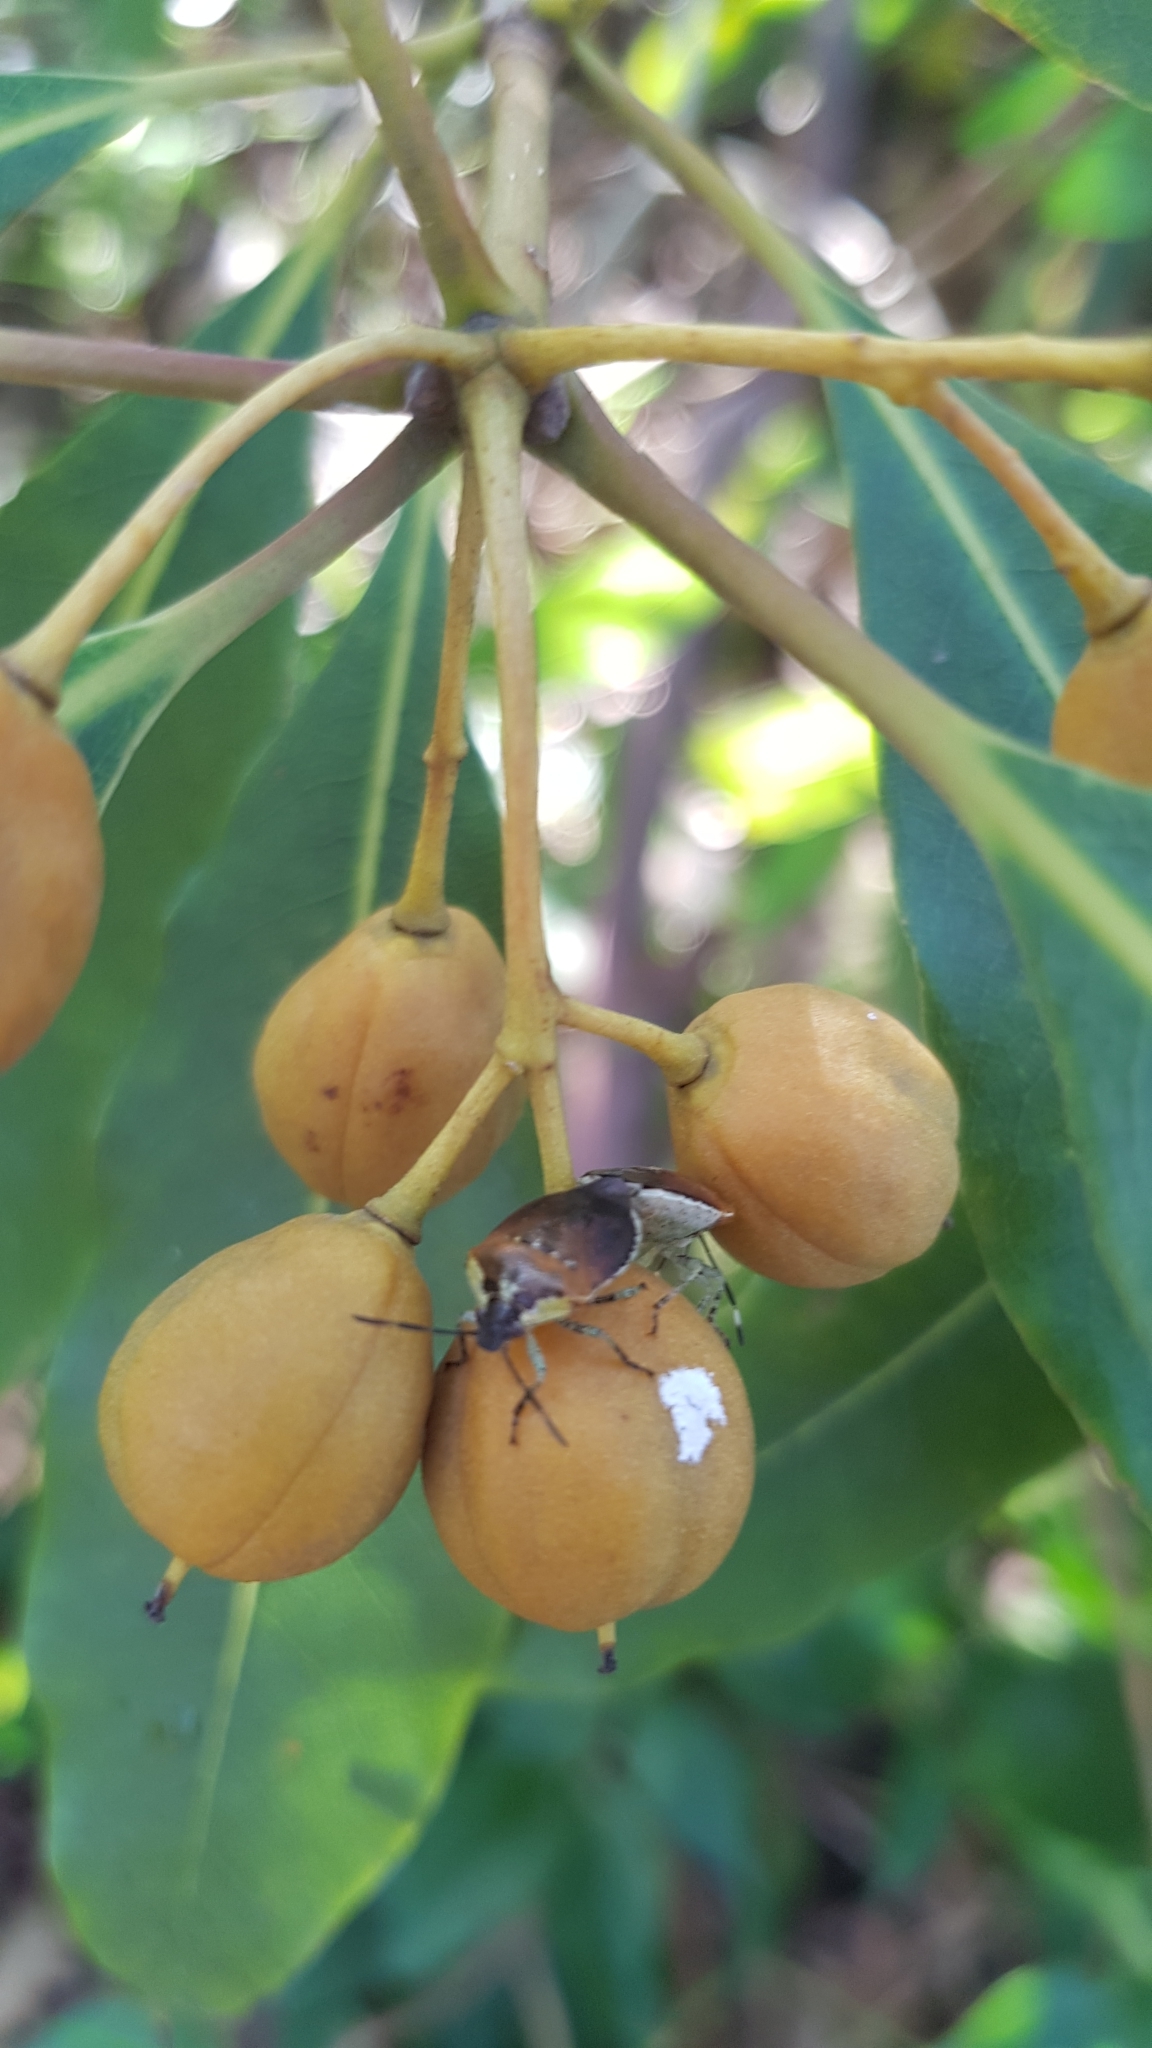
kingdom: Animalia
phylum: Arthropoda
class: Insecta
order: Hemiptera
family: Pentatomidae
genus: Monteithiella
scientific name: Monteithiella
